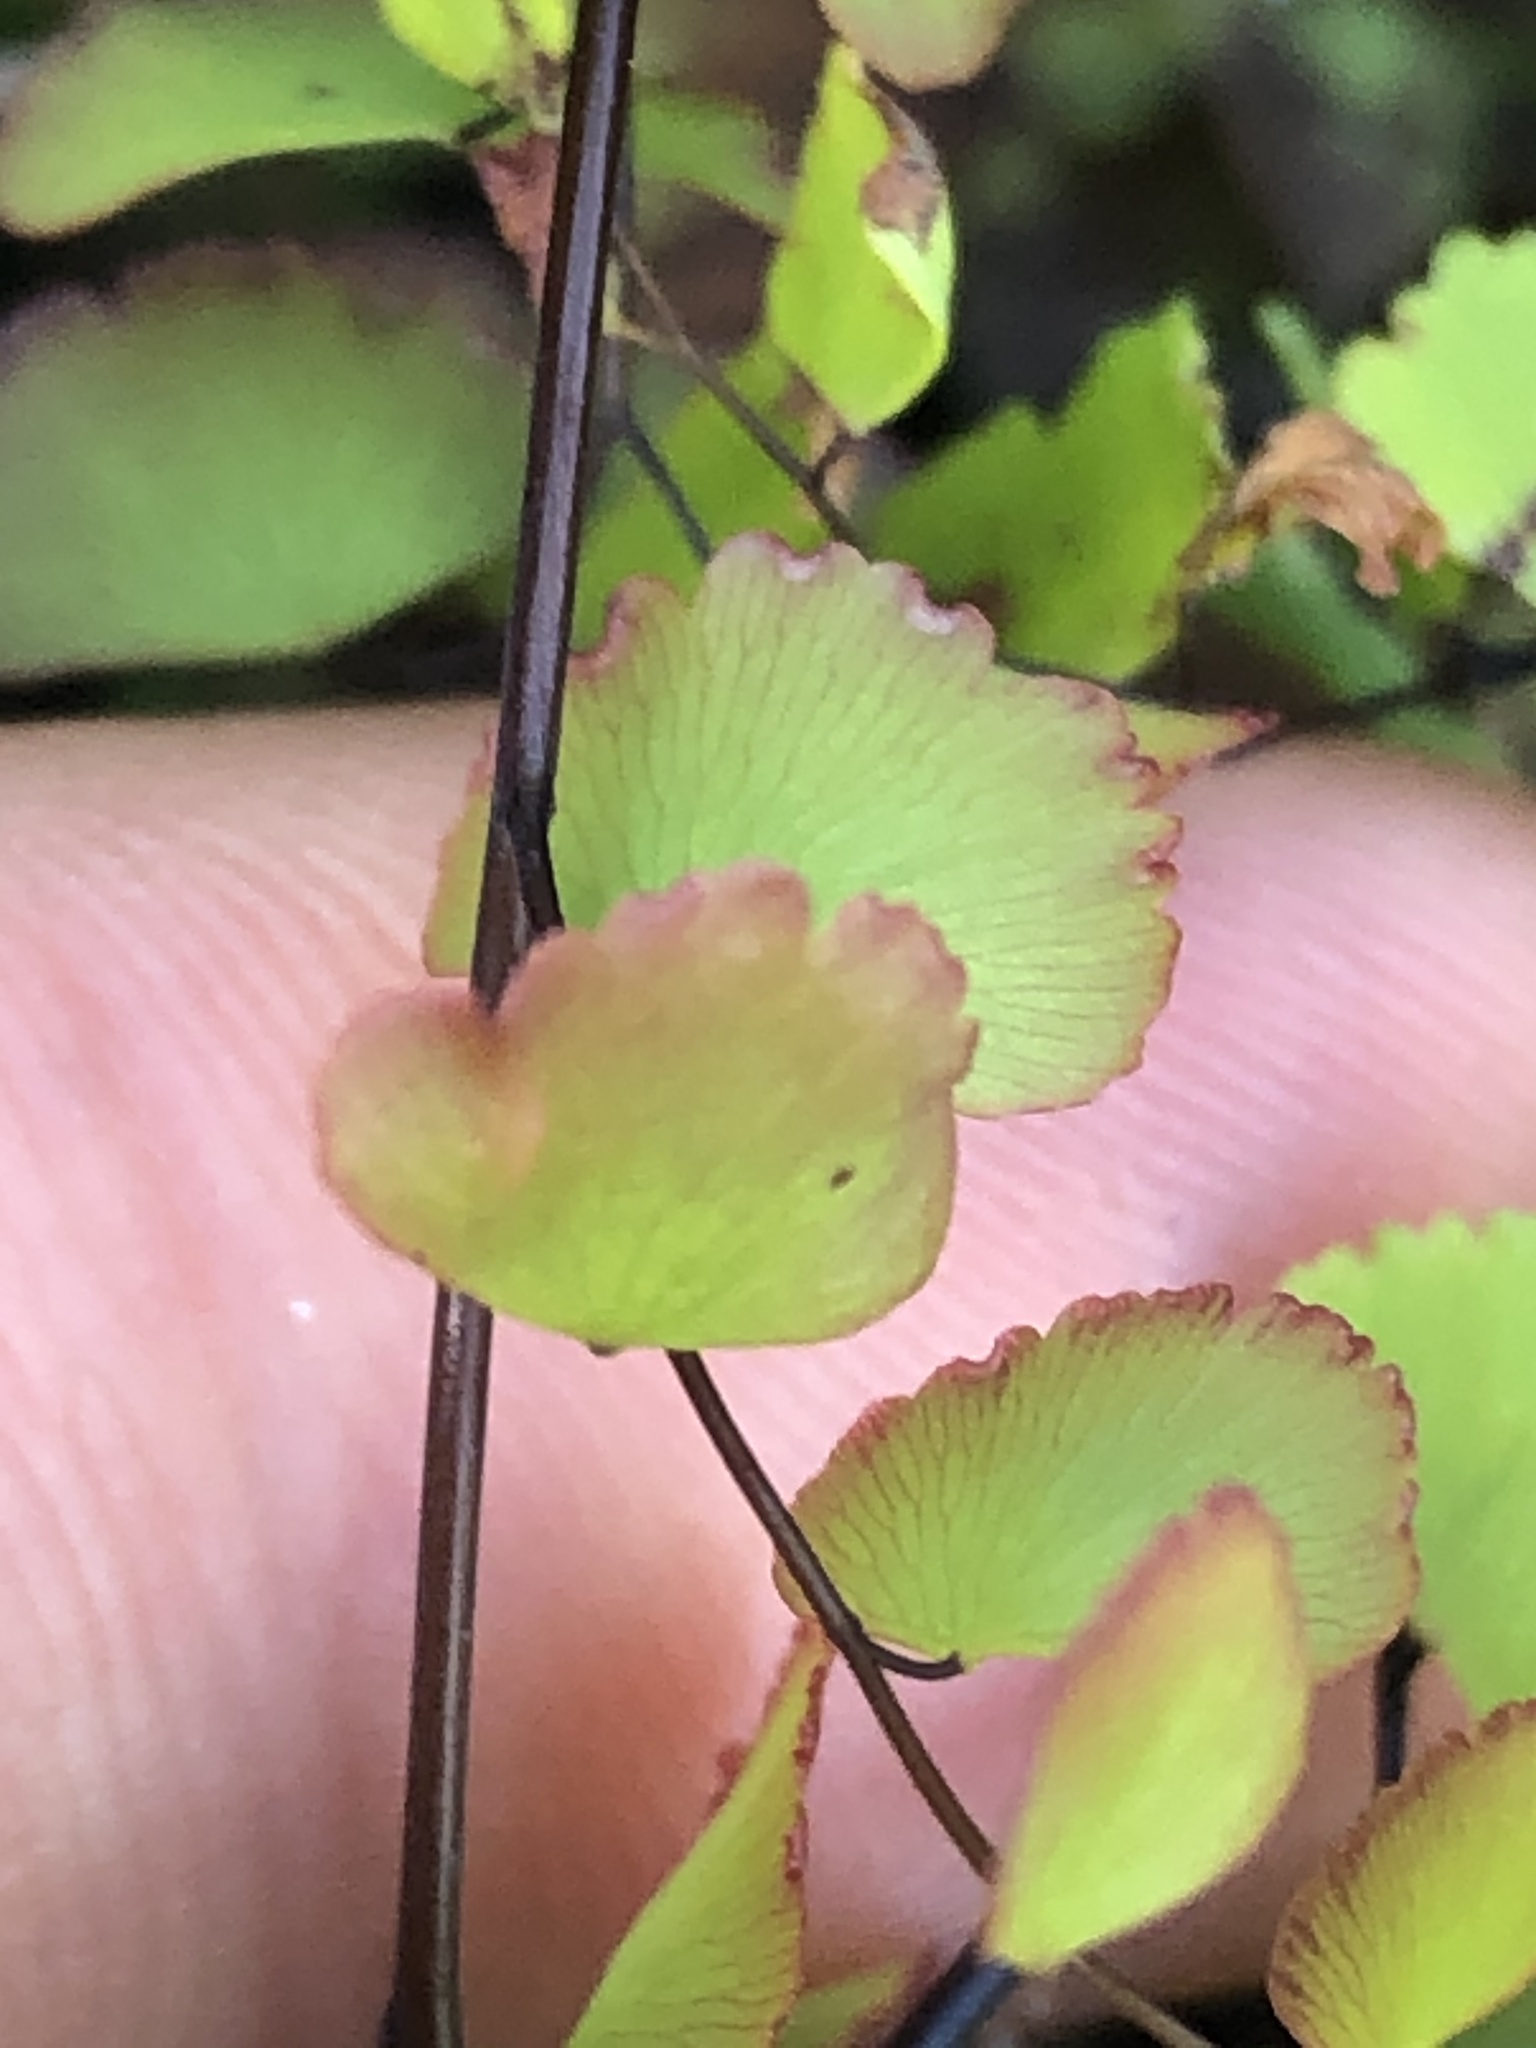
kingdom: Plantae
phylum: Tracheophyta
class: Polypodiopsida
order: Polypodiales
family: Pteridaceae
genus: Adiantum
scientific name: Adiantum orbignyanum
